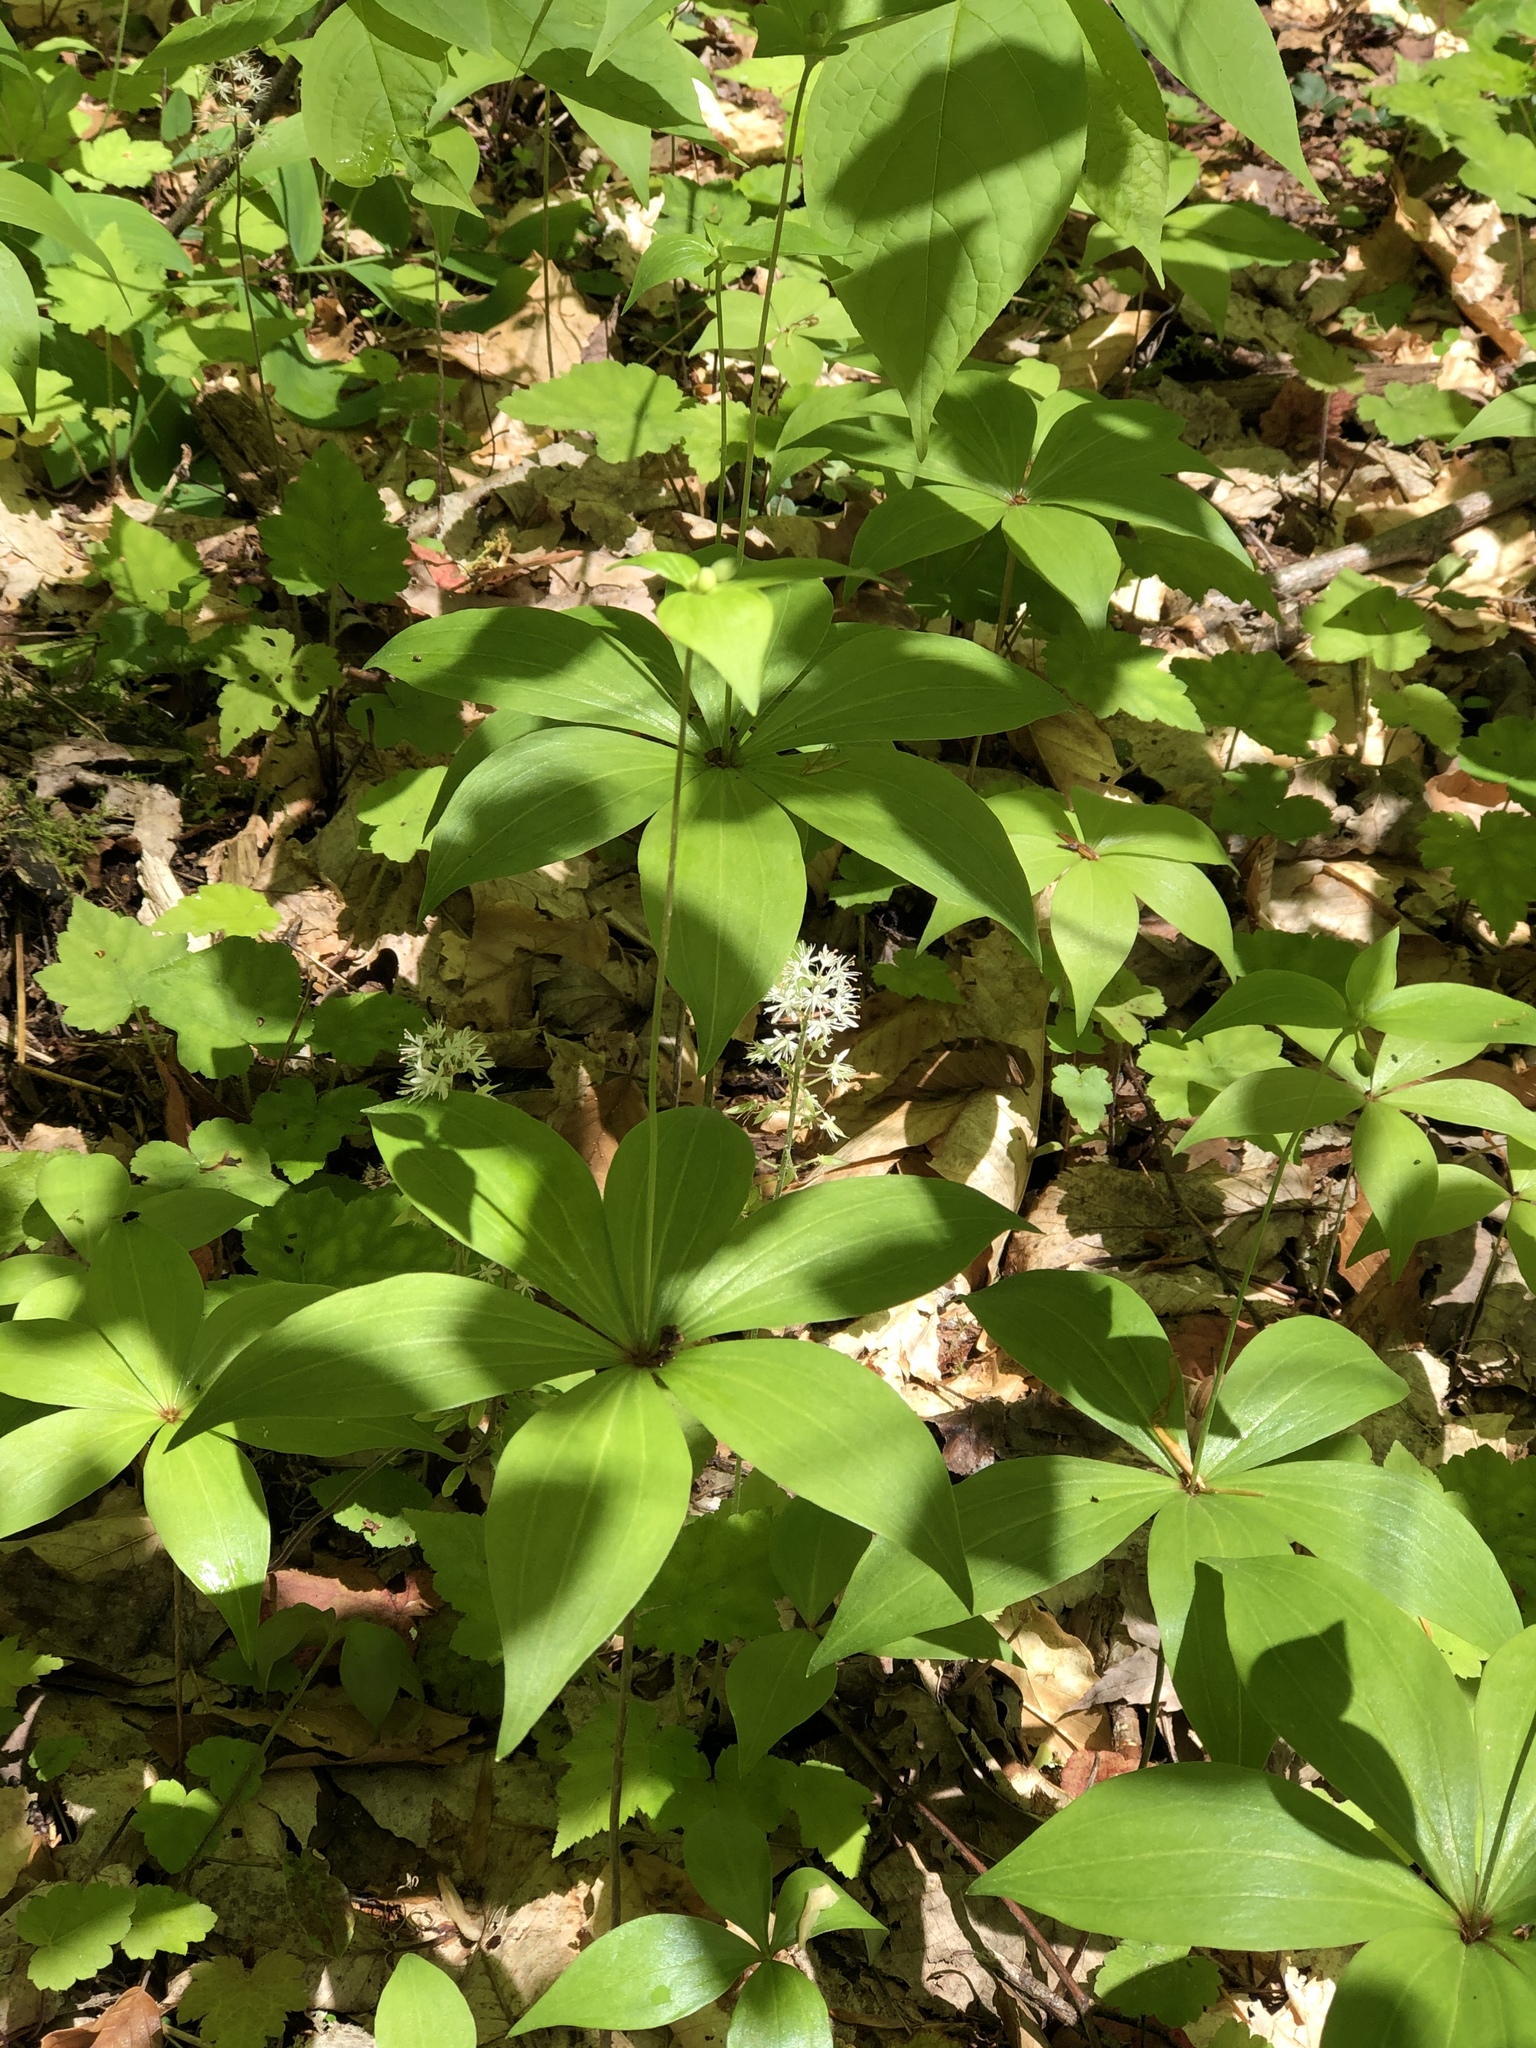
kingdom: Plantae
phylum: Tracheophyta
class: Liliopsida
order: Liliales
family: Liliaceae
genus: Medeola
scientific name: Medeola virginiana
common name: Indian cucumber-root
